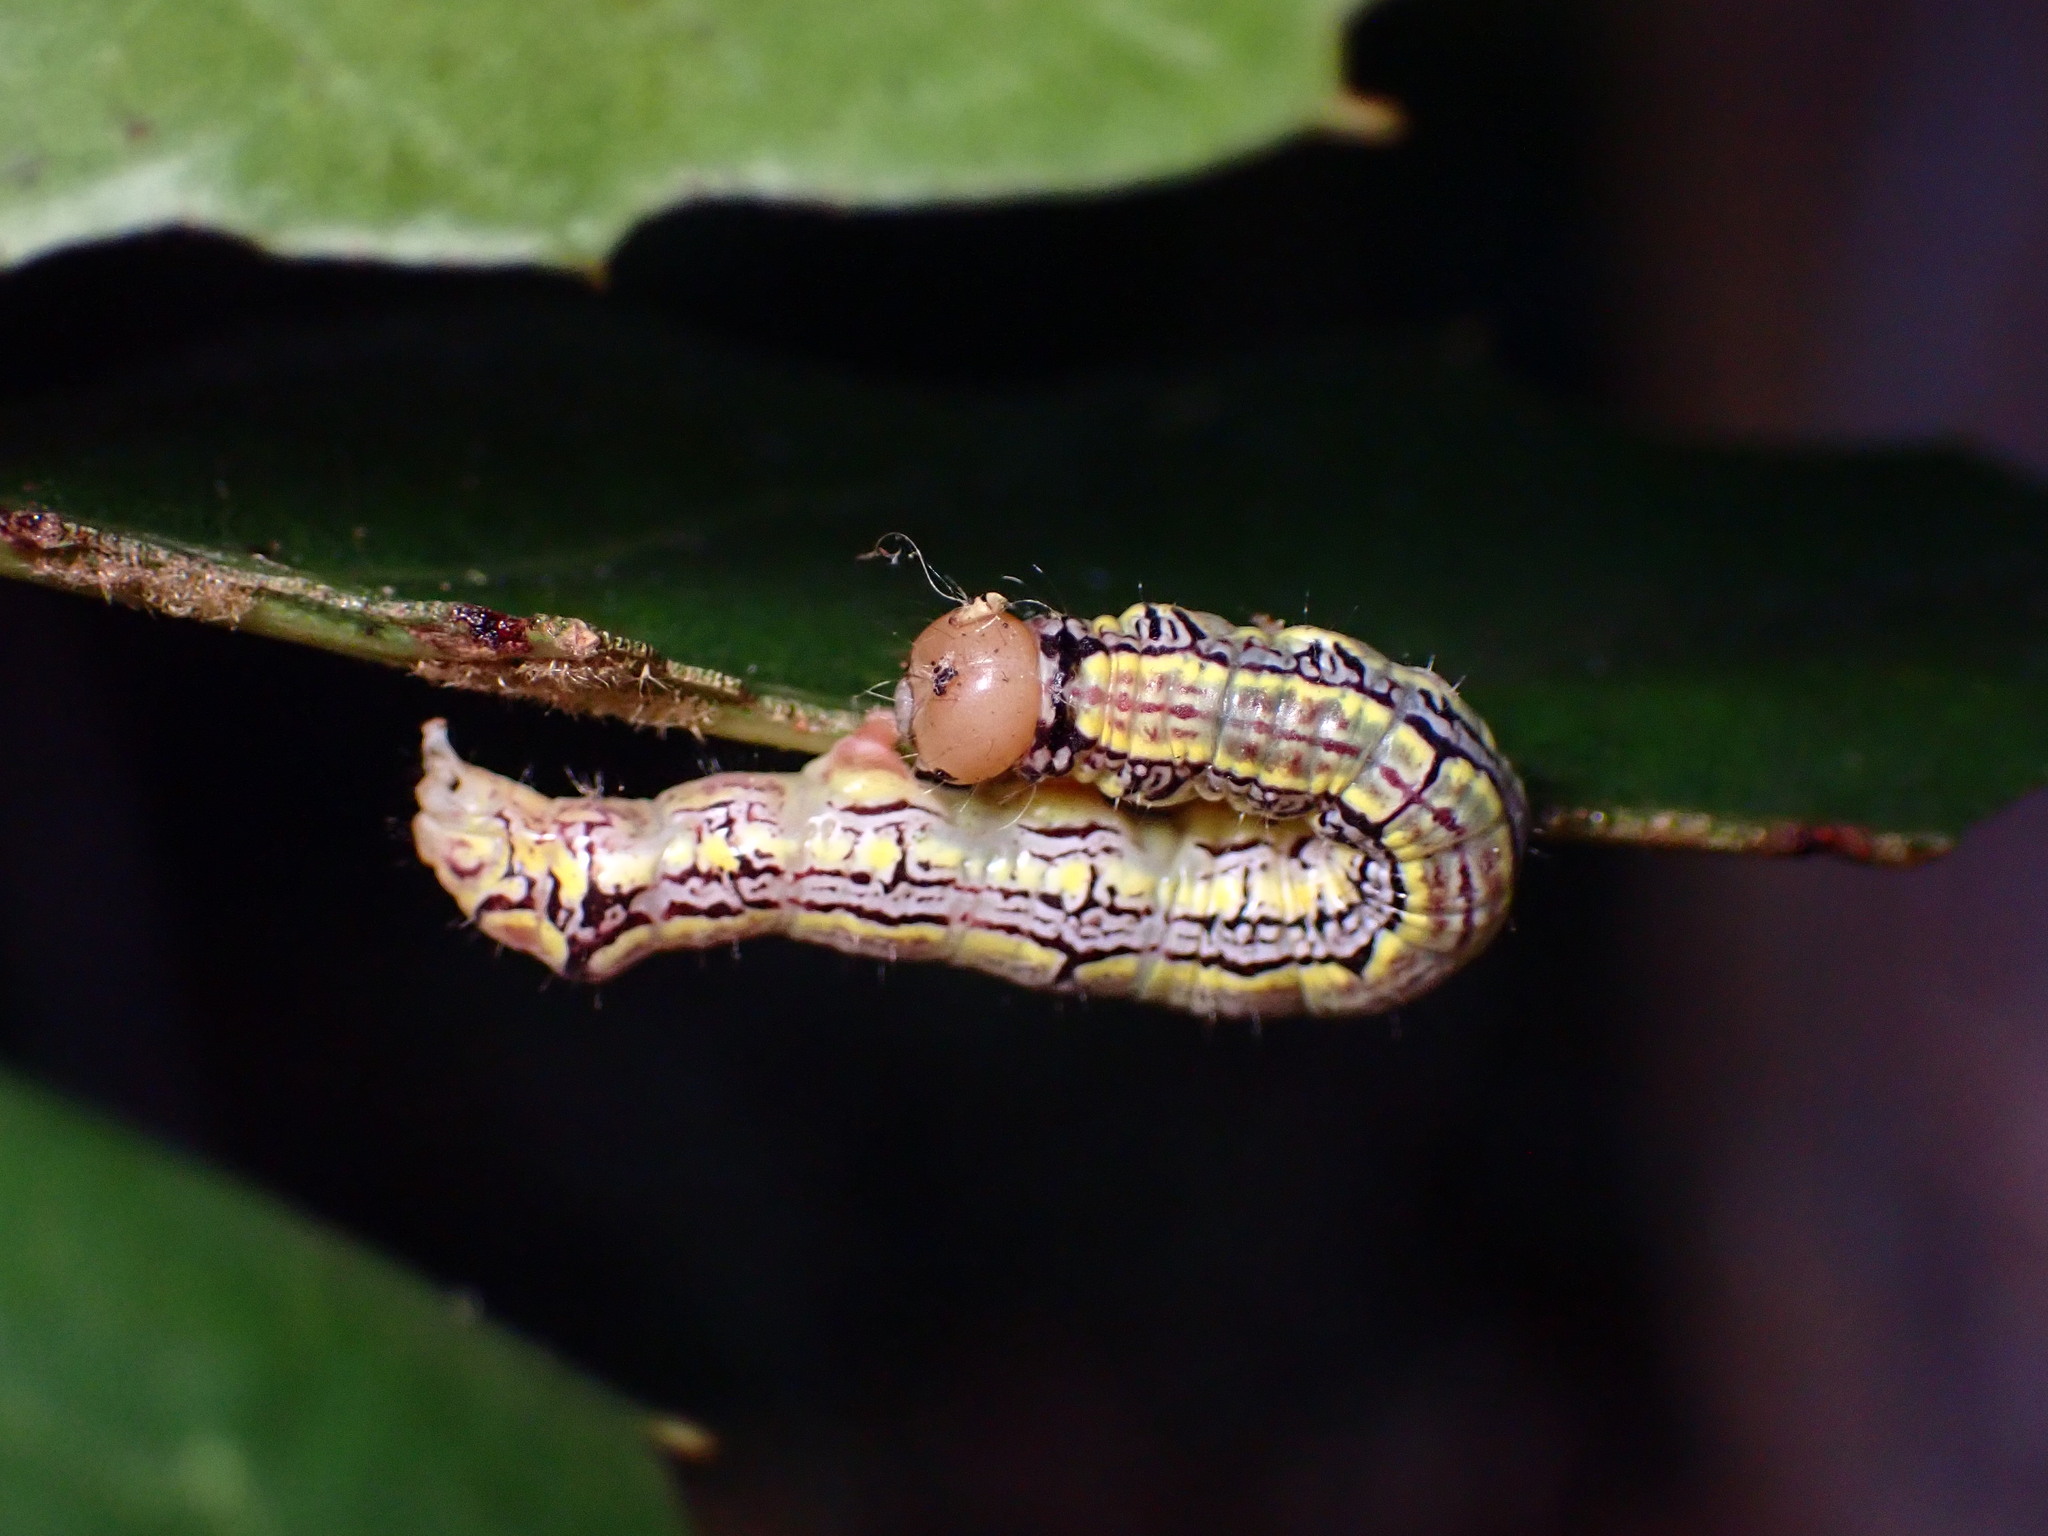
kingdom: Animalia
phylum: Arthropoda
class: Insecta
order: Lepidoptera
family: Notodontidae
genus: Phryganidia
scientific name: Phryganidia californica
